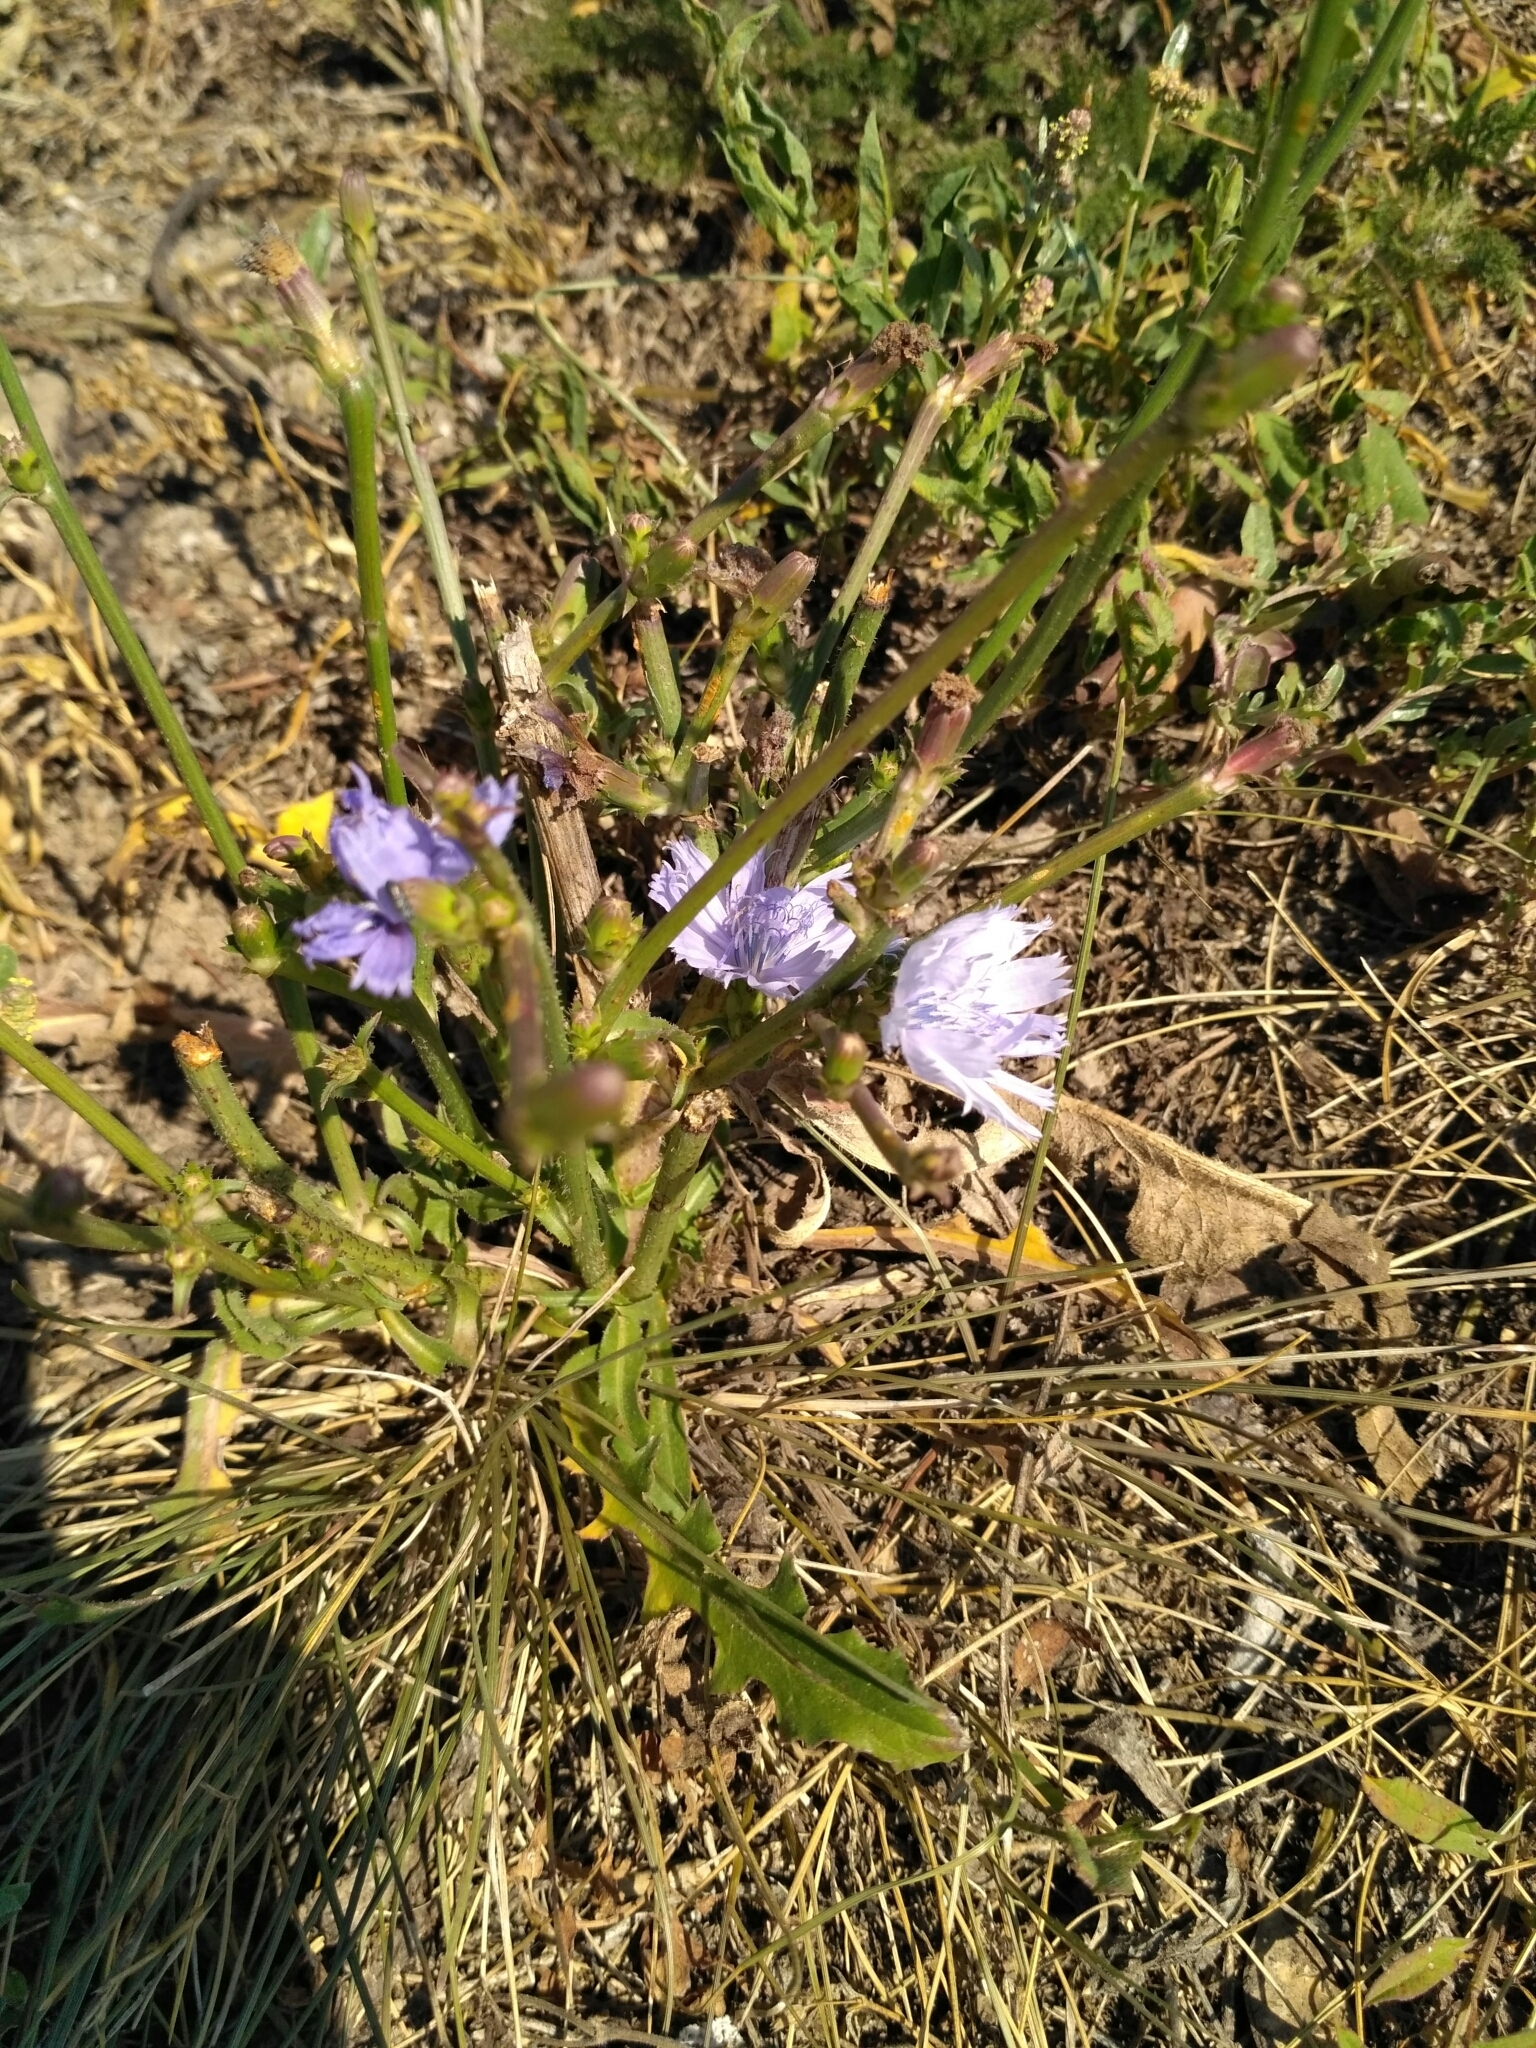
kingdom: Plantae
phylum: Tracheophyta
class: Magnoliopsida
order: Asterales
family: Asteraceae
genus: Cichorium
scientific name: Cichorium intybus
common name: Chicory
